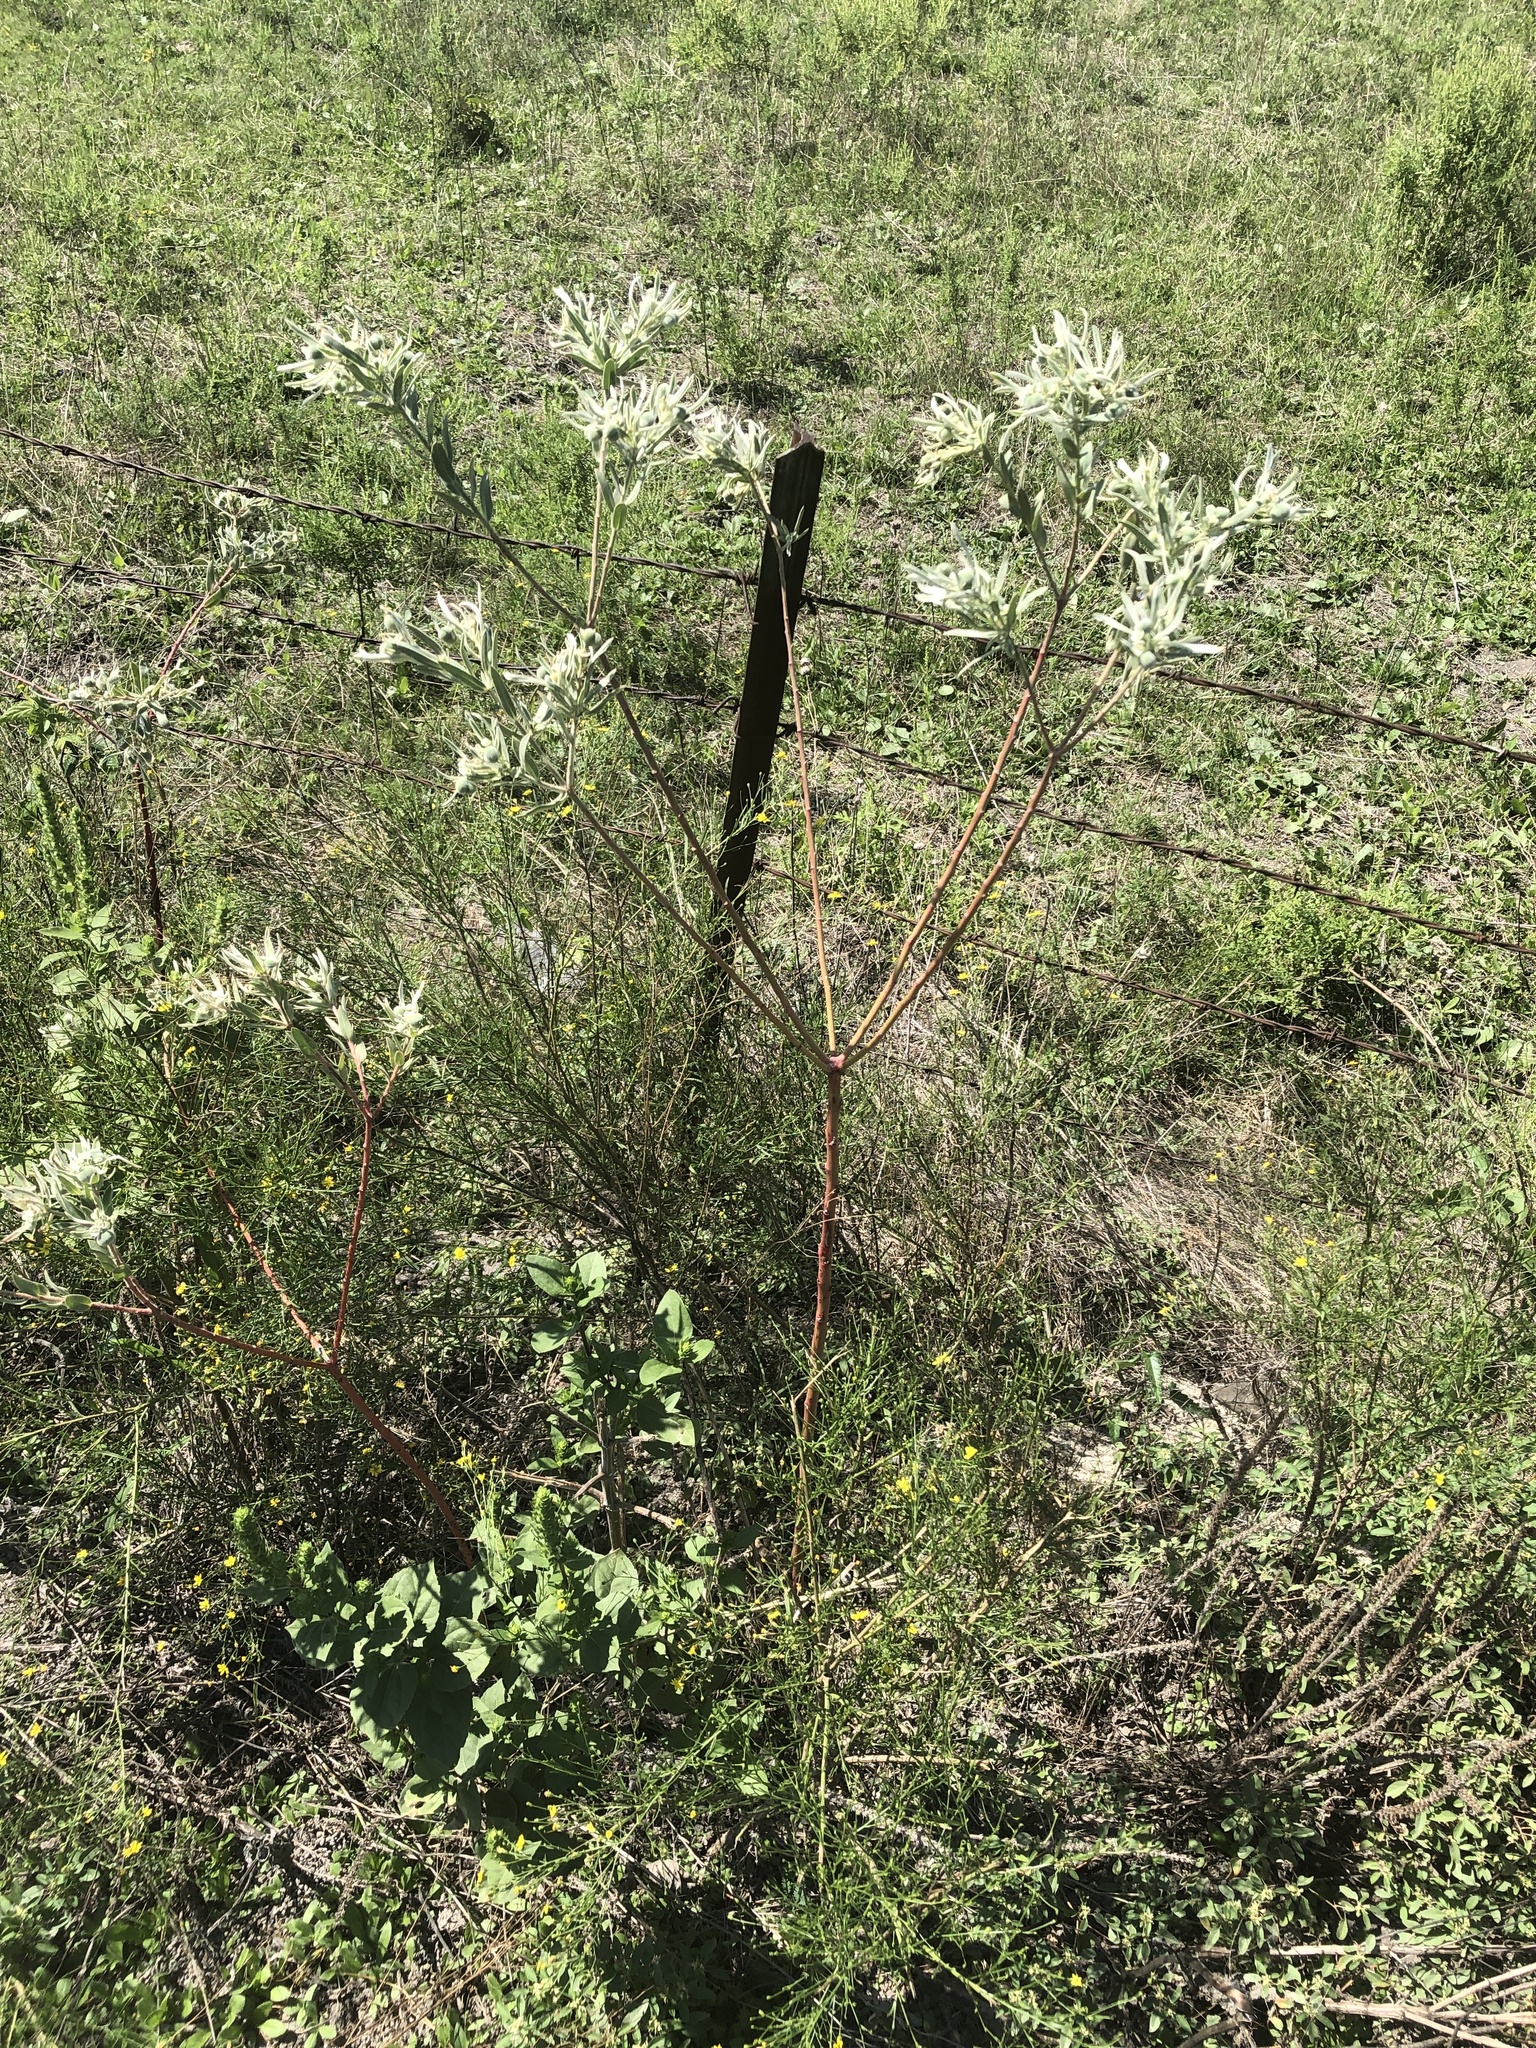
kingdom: Plantae
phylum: Tracheophyta
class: Magnoliopsida
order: Malpighiales
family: Euphorbiaceae
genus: Euphorbia
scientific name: Euphorbia bicolor
